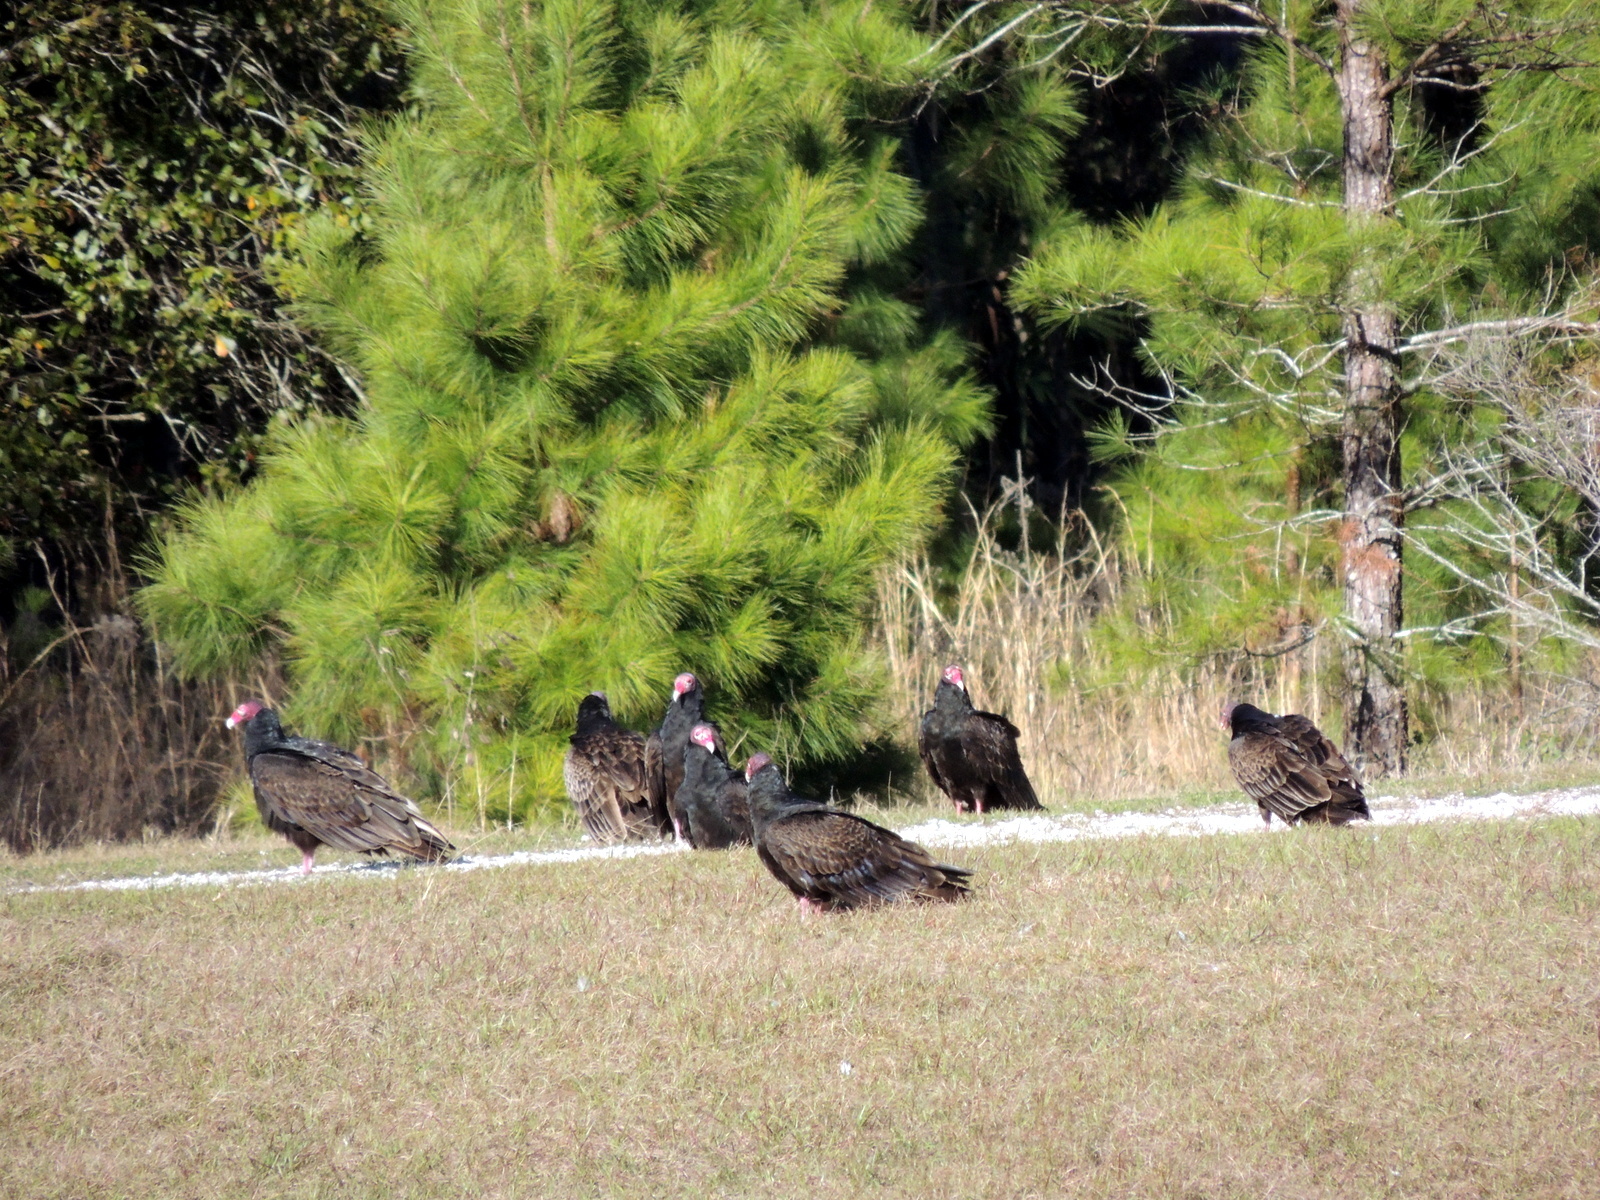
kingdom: Animalia
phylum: Chordata
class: Aves
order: Accipitriformes
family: Cathartidae
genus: Cathartes
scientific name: Cathartes aura
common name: Turkey vulture
